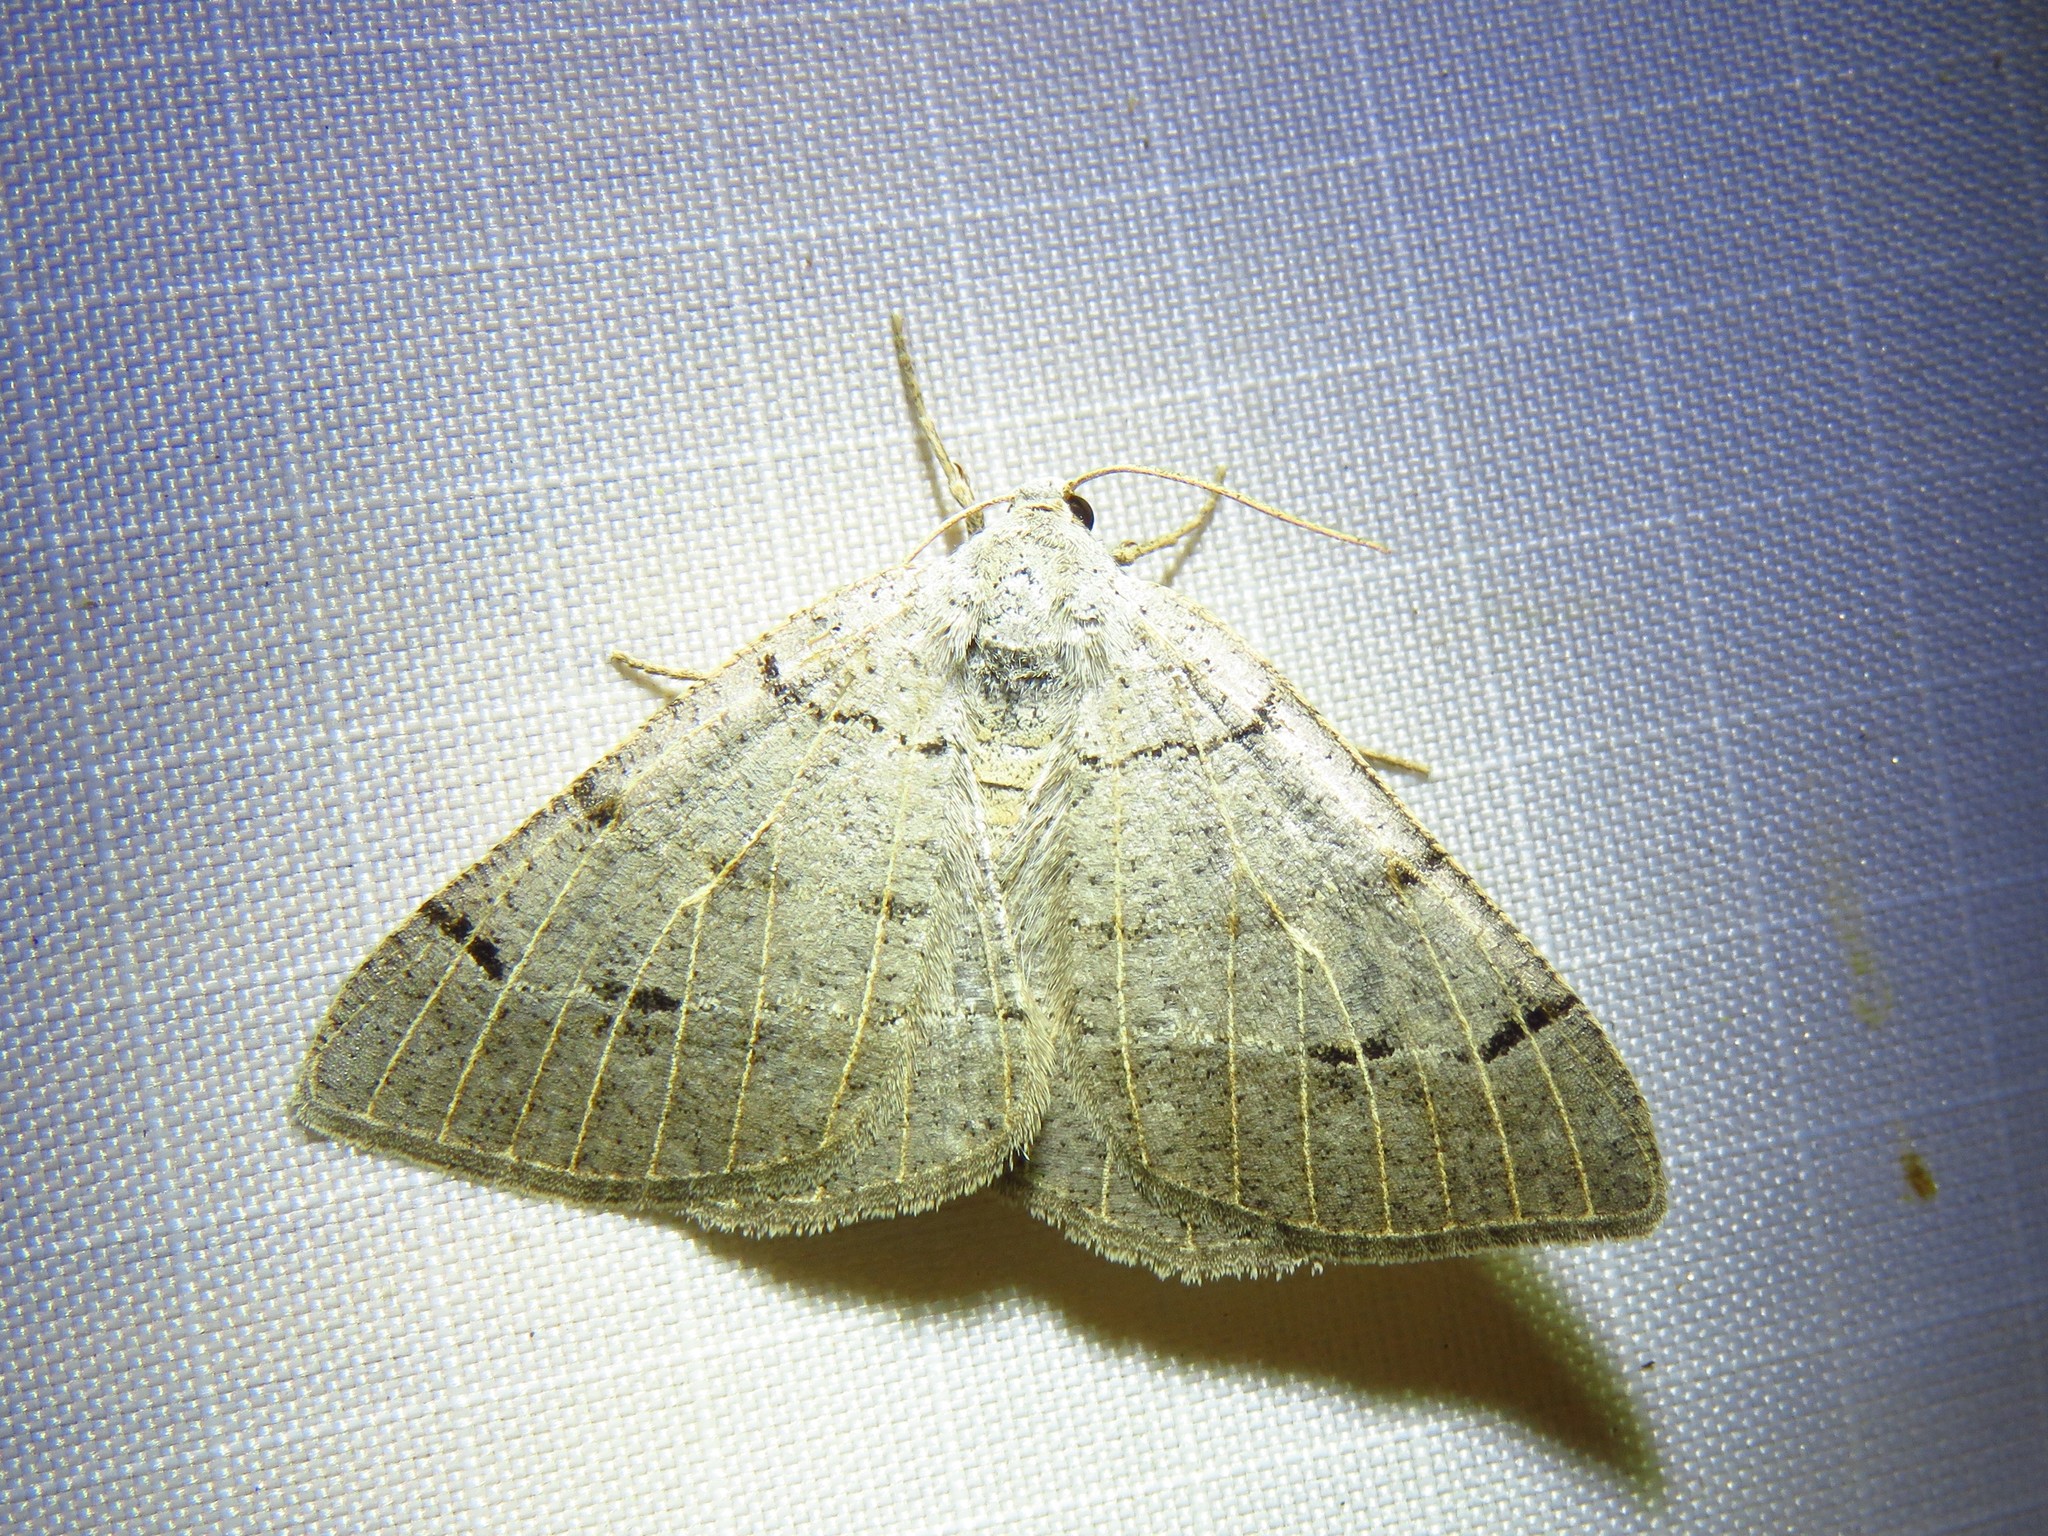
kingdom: Animalia
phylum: Arthropoda
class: Insecta
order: Lepidoptera
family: Geometridae
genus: Isturgia
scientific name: Isturgia dislocaria
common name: Pale-viened enconista
